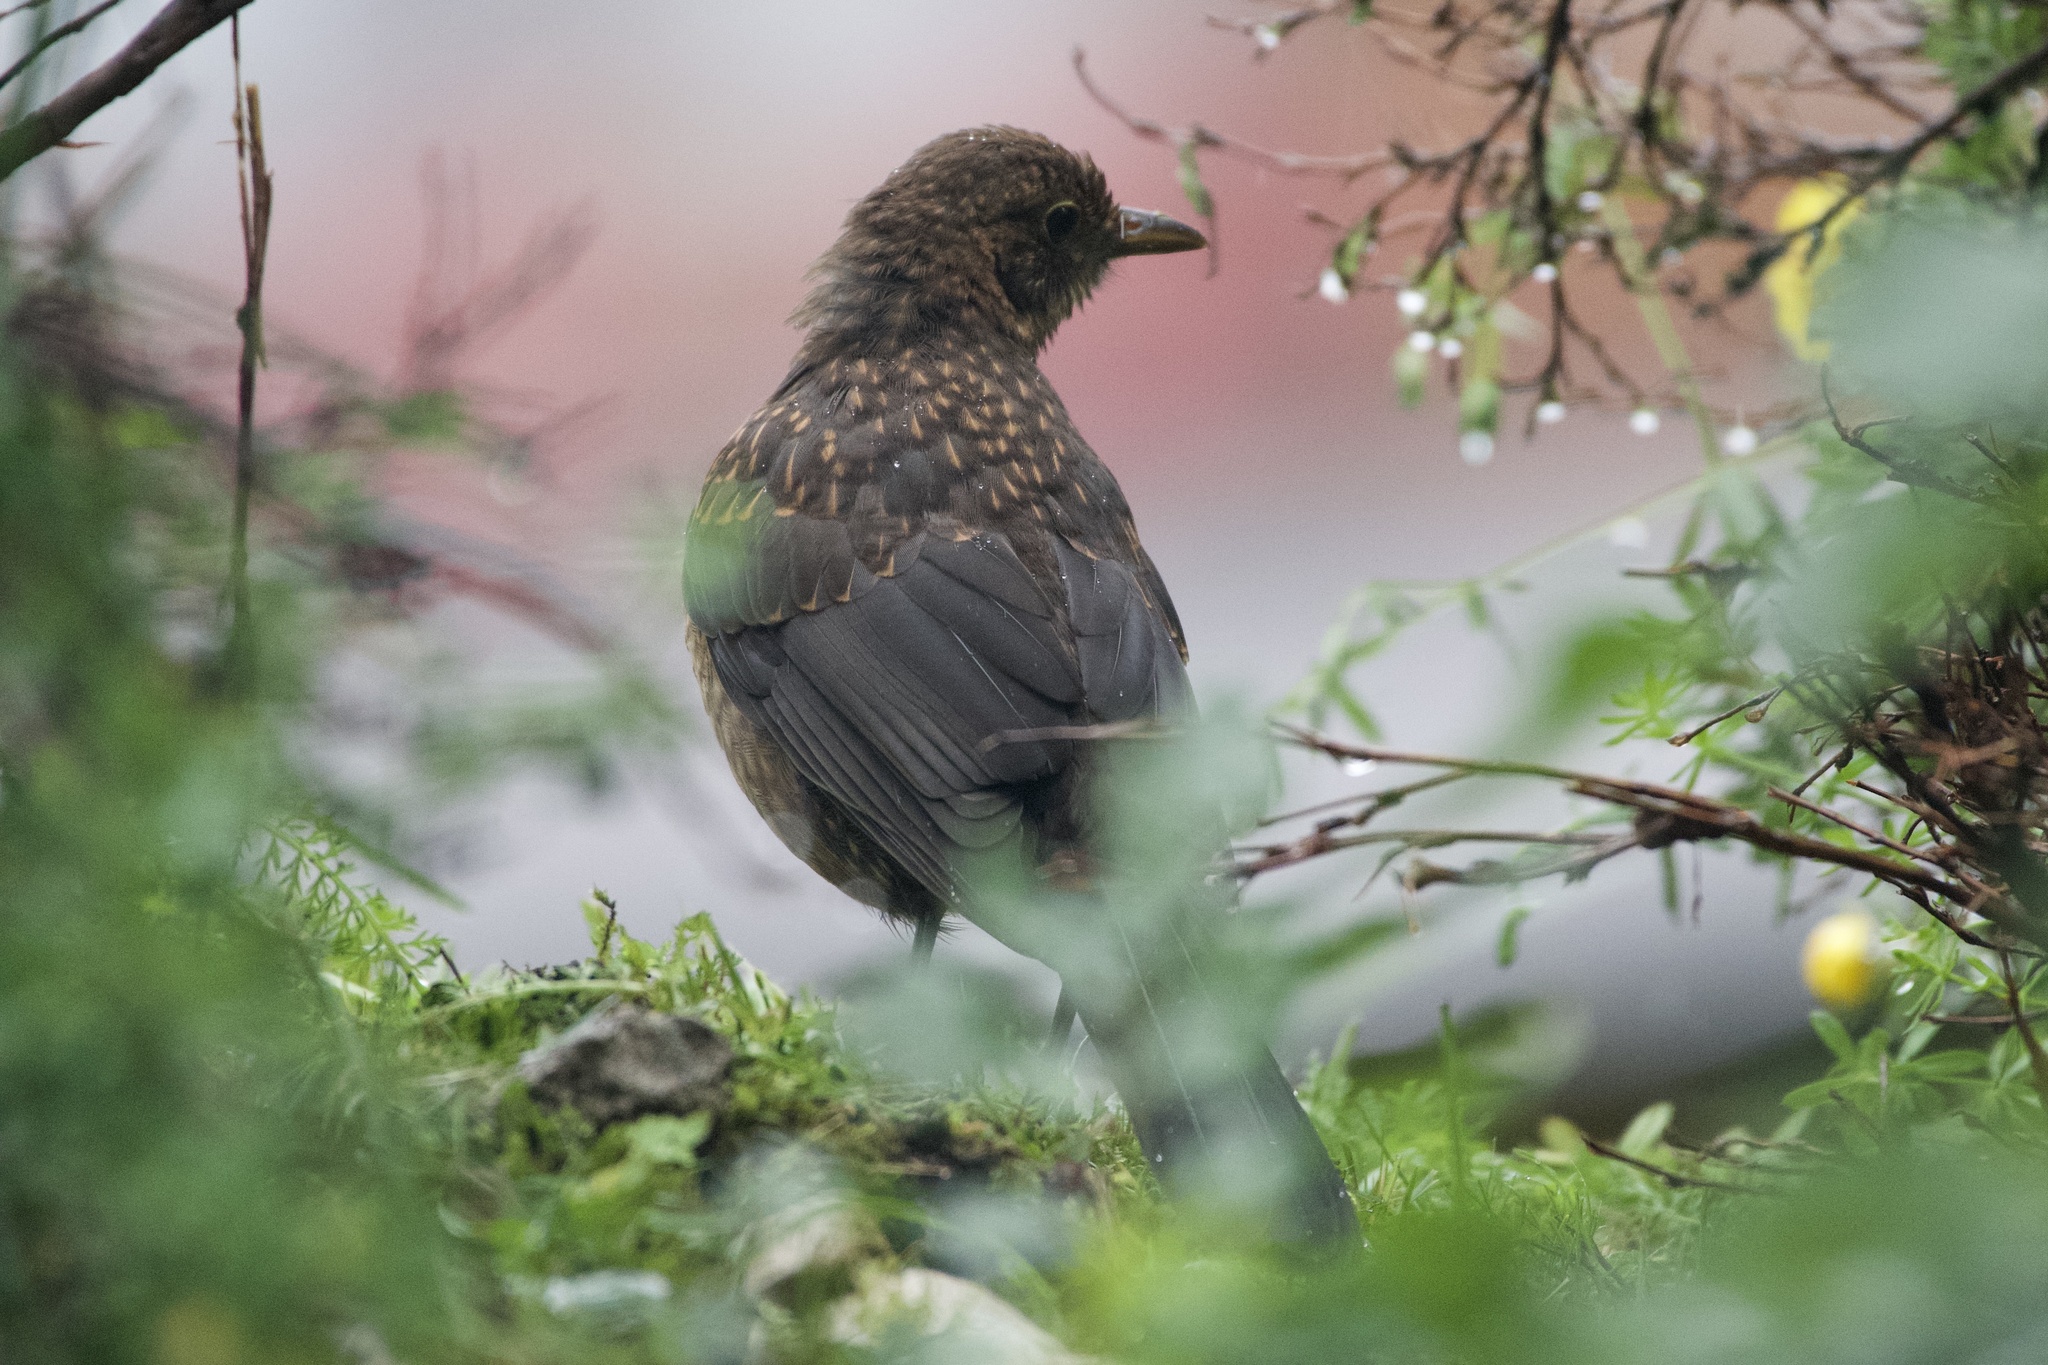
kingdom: Animalia
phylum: Chordata
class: Aves
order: Passeriformes
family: Turdidae
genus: Turdus
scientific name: Turdus merula
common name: Common blackbird
